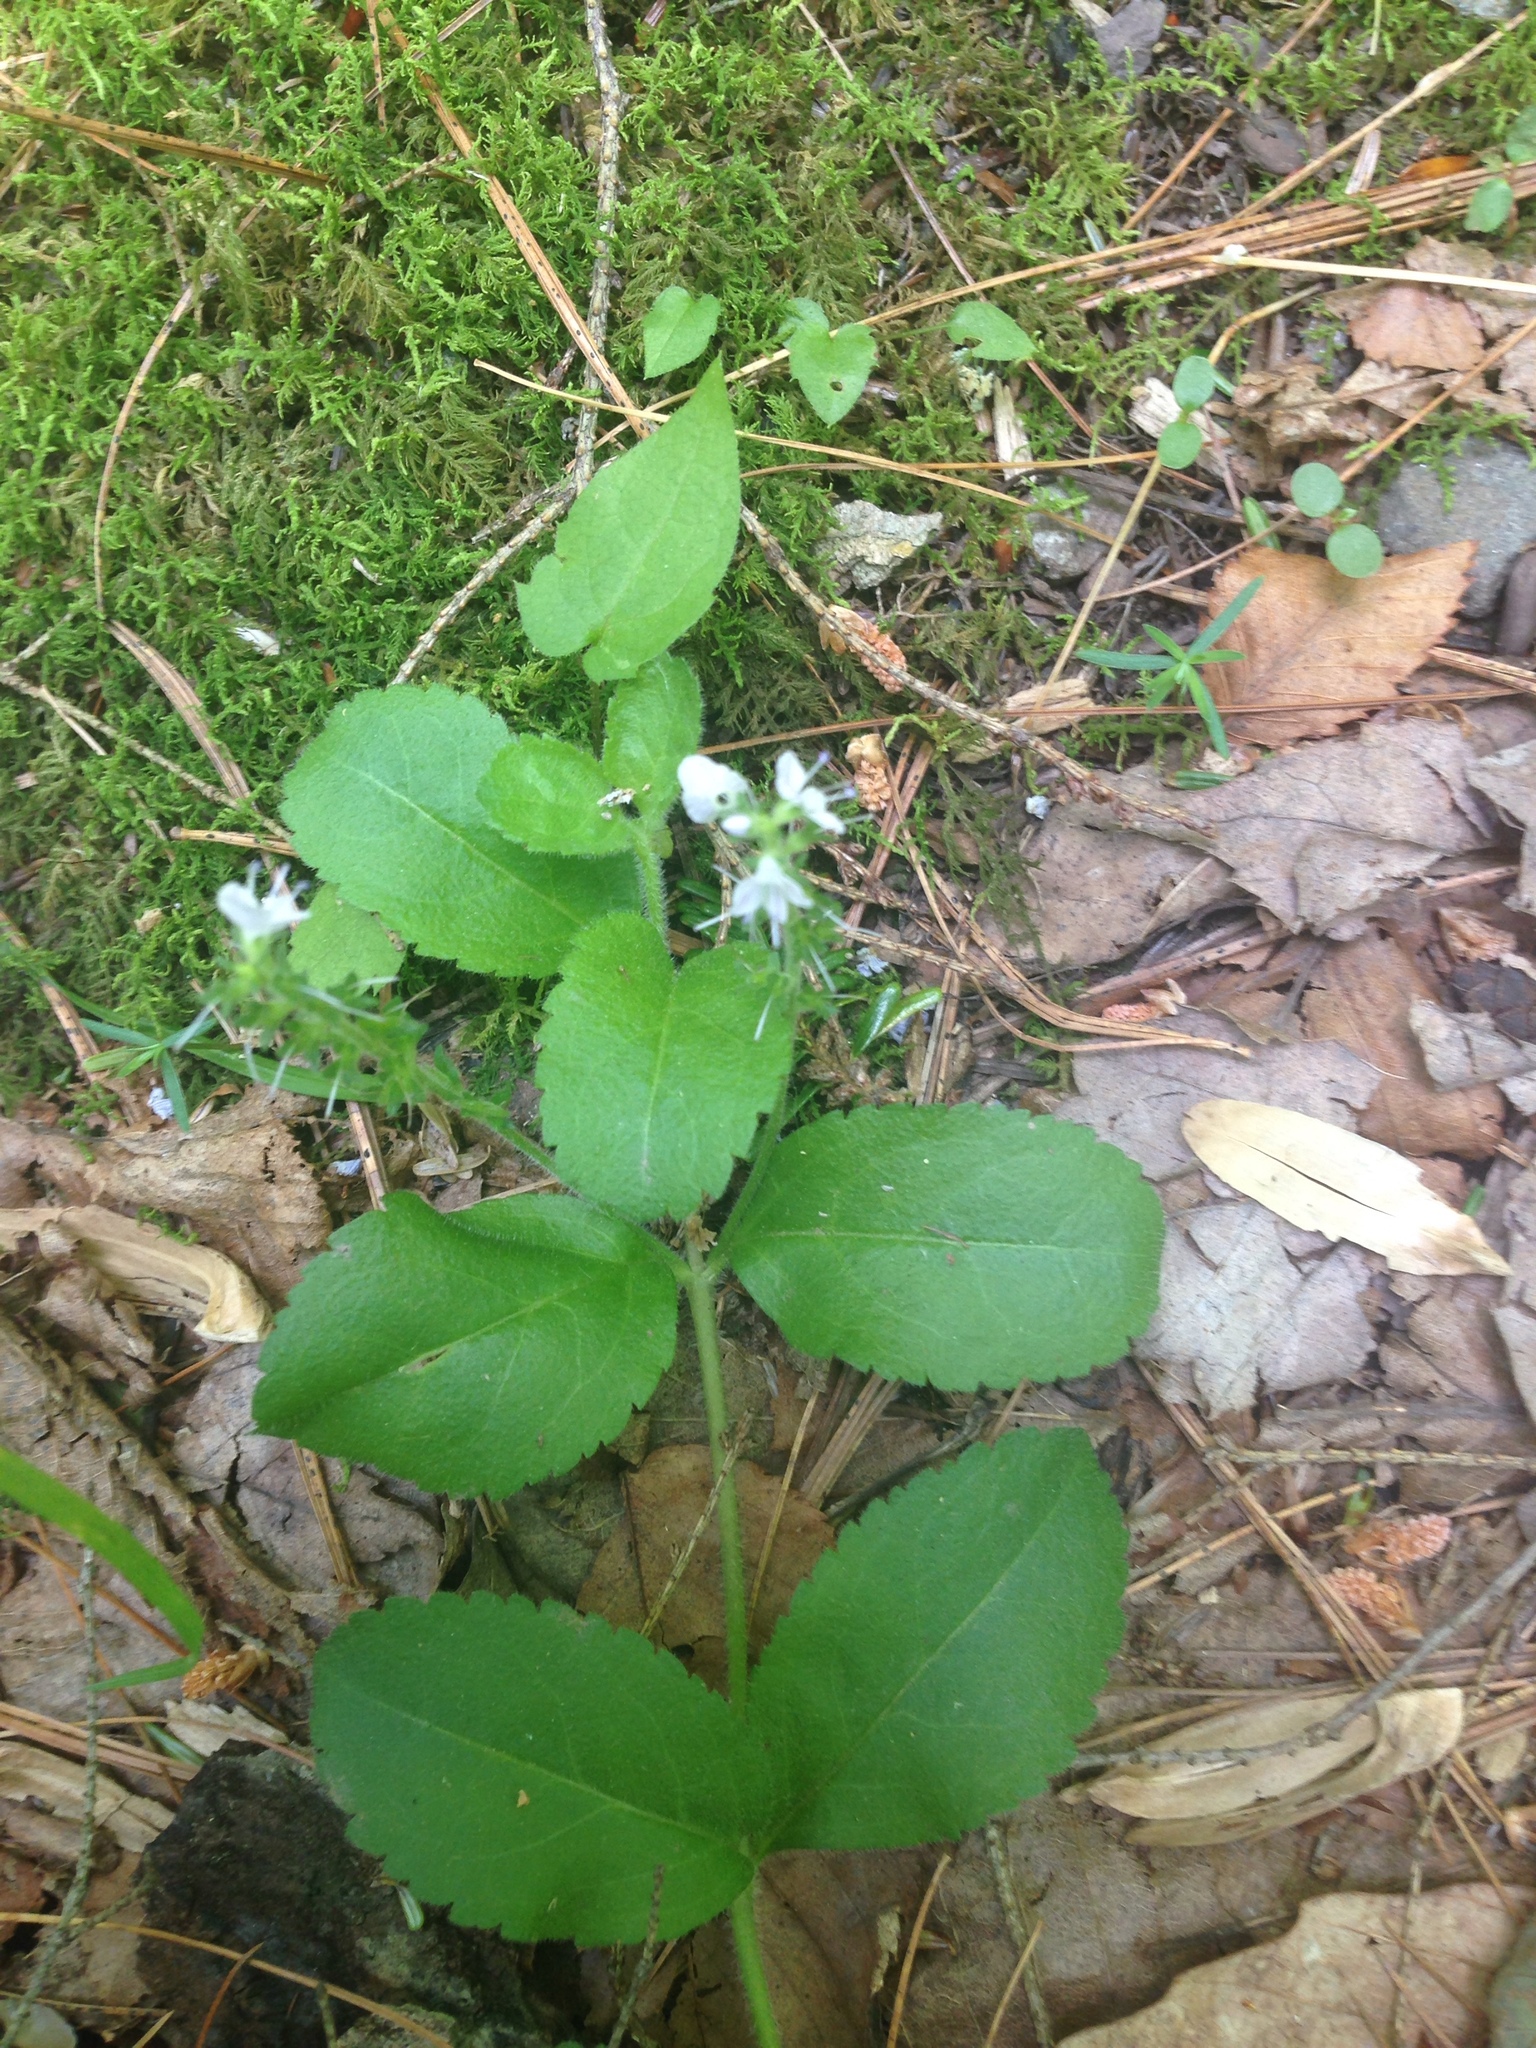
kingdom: Plantae
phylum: Tracheophyta
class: Magnoliopsida
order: Lamiales
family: Plantaginaceae
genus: Veronica
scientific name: Veronica officinalis
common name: Common speedwell
